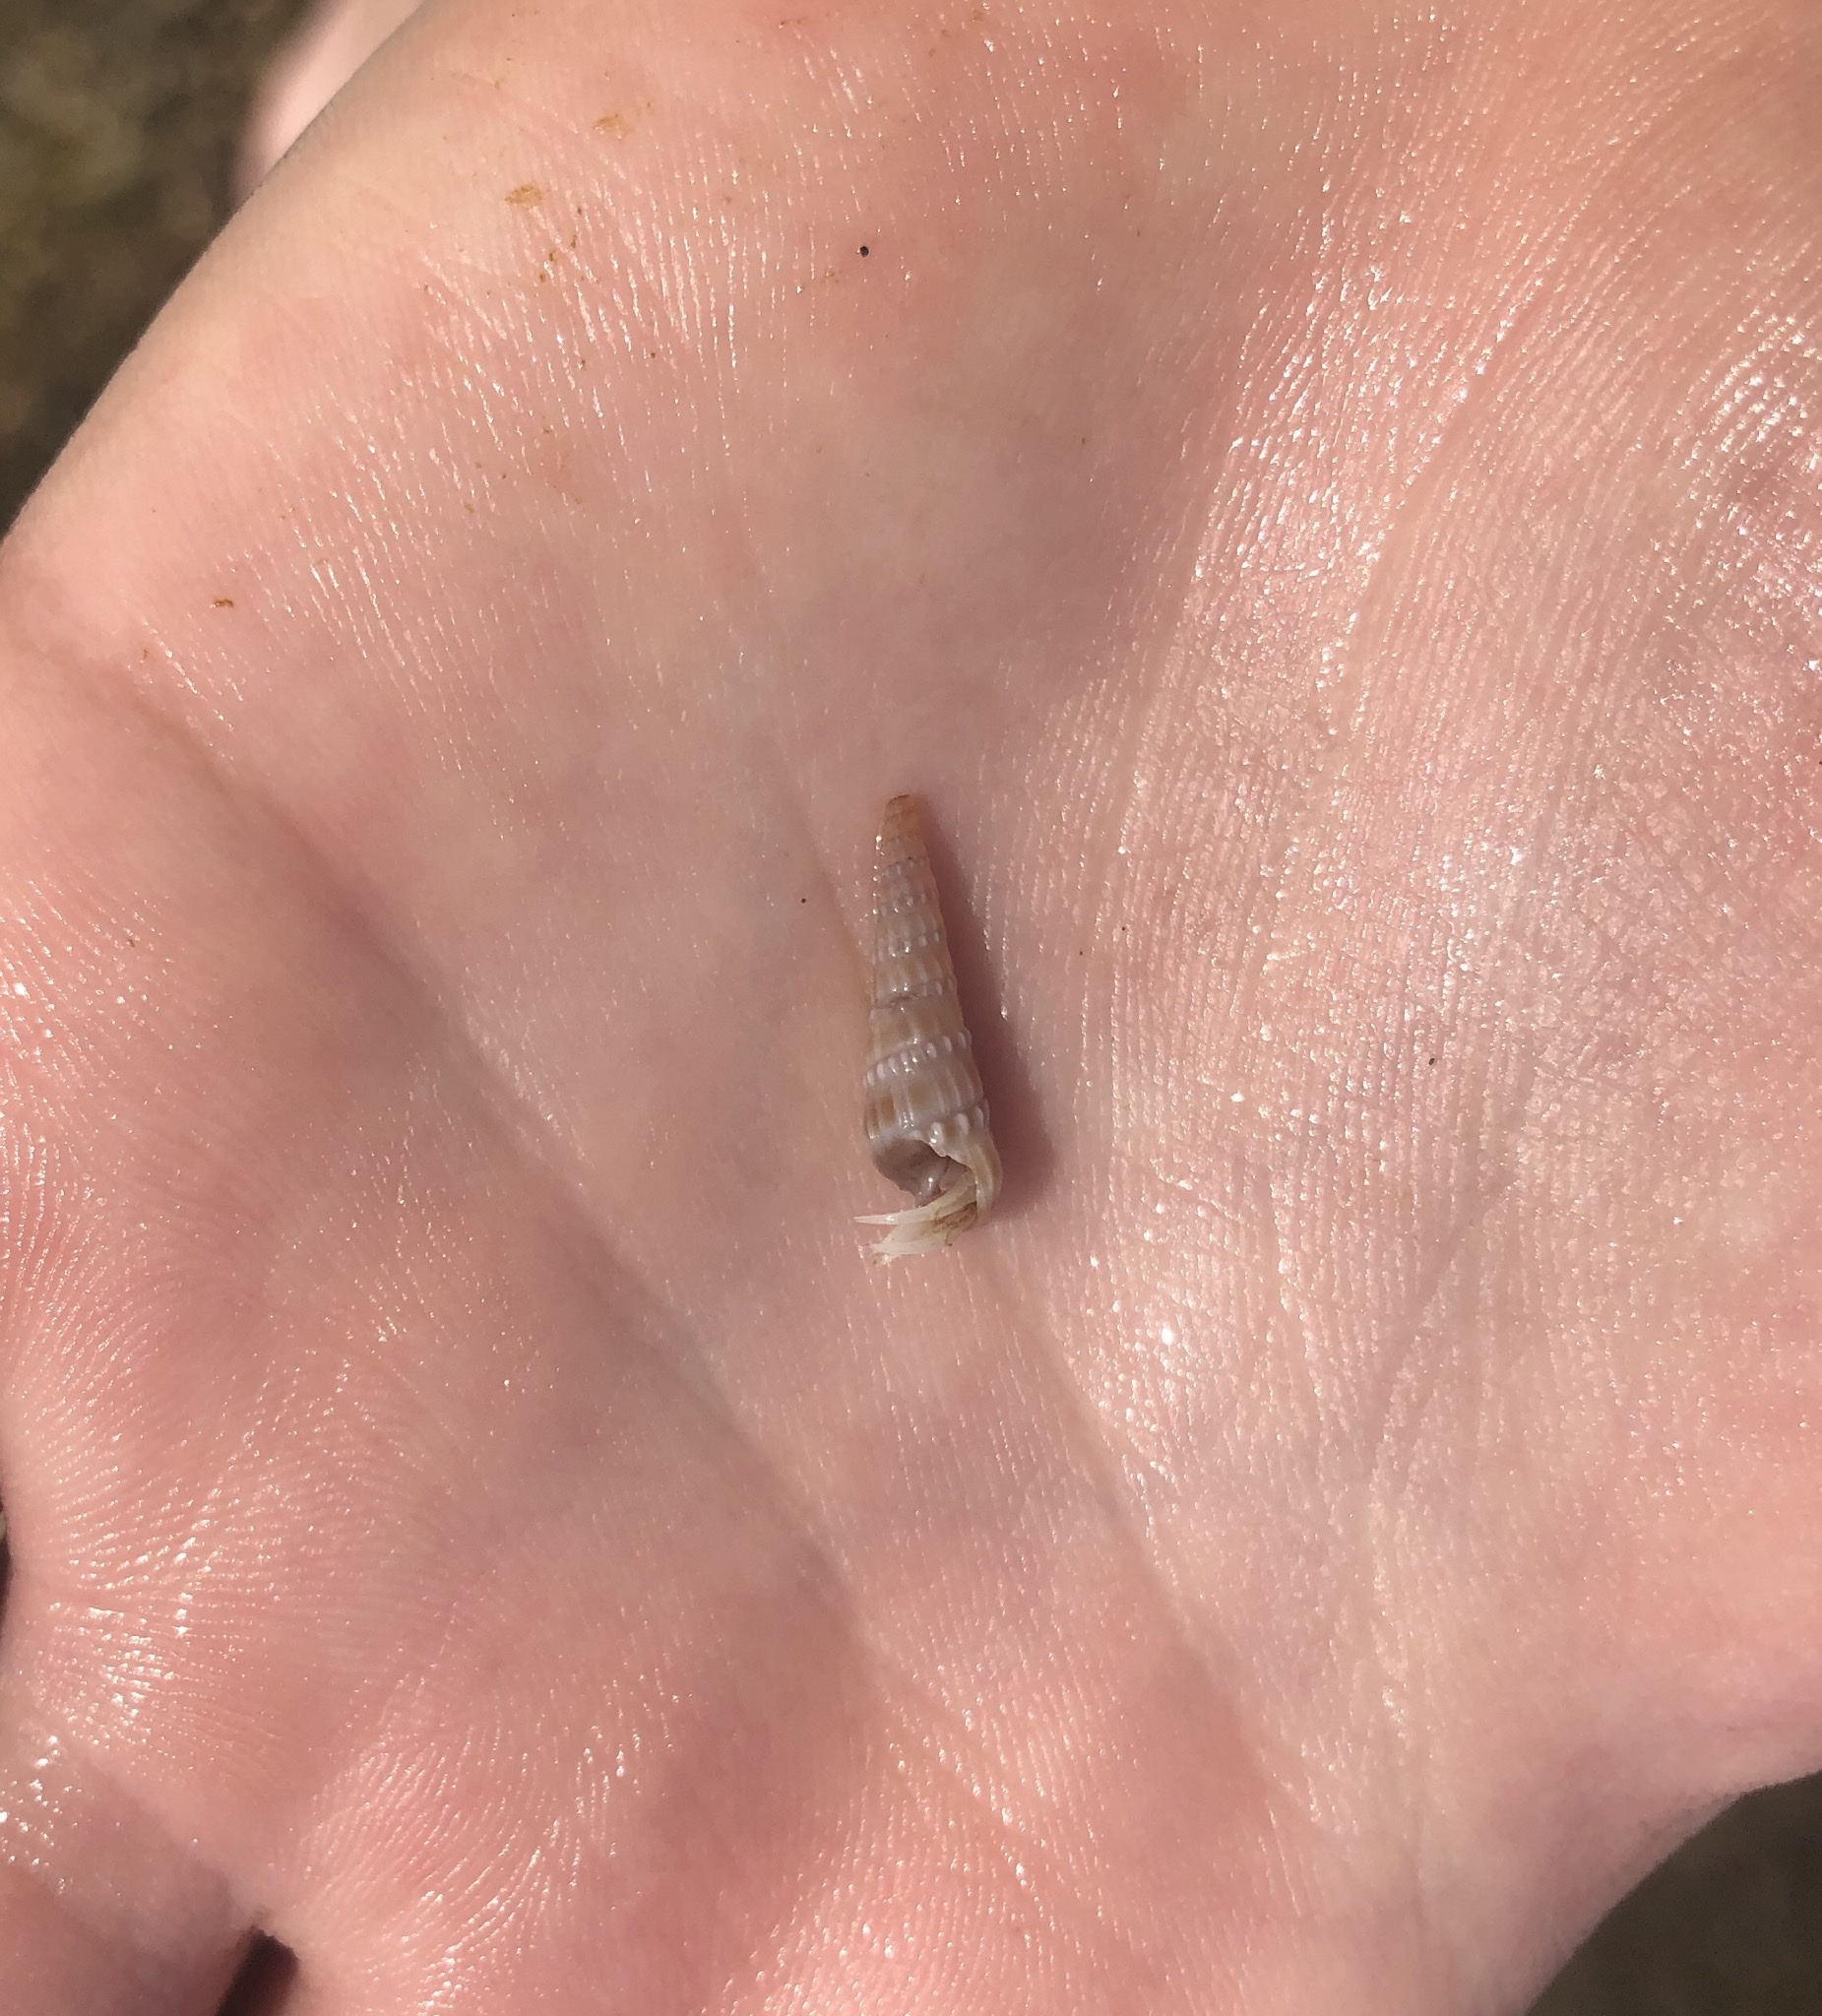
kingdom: Animalia
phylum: Mollusca
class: Gastropoda
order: Neogastropoda
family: Terebridae
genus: Neoterebra
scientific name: Neoterebra dislocata
